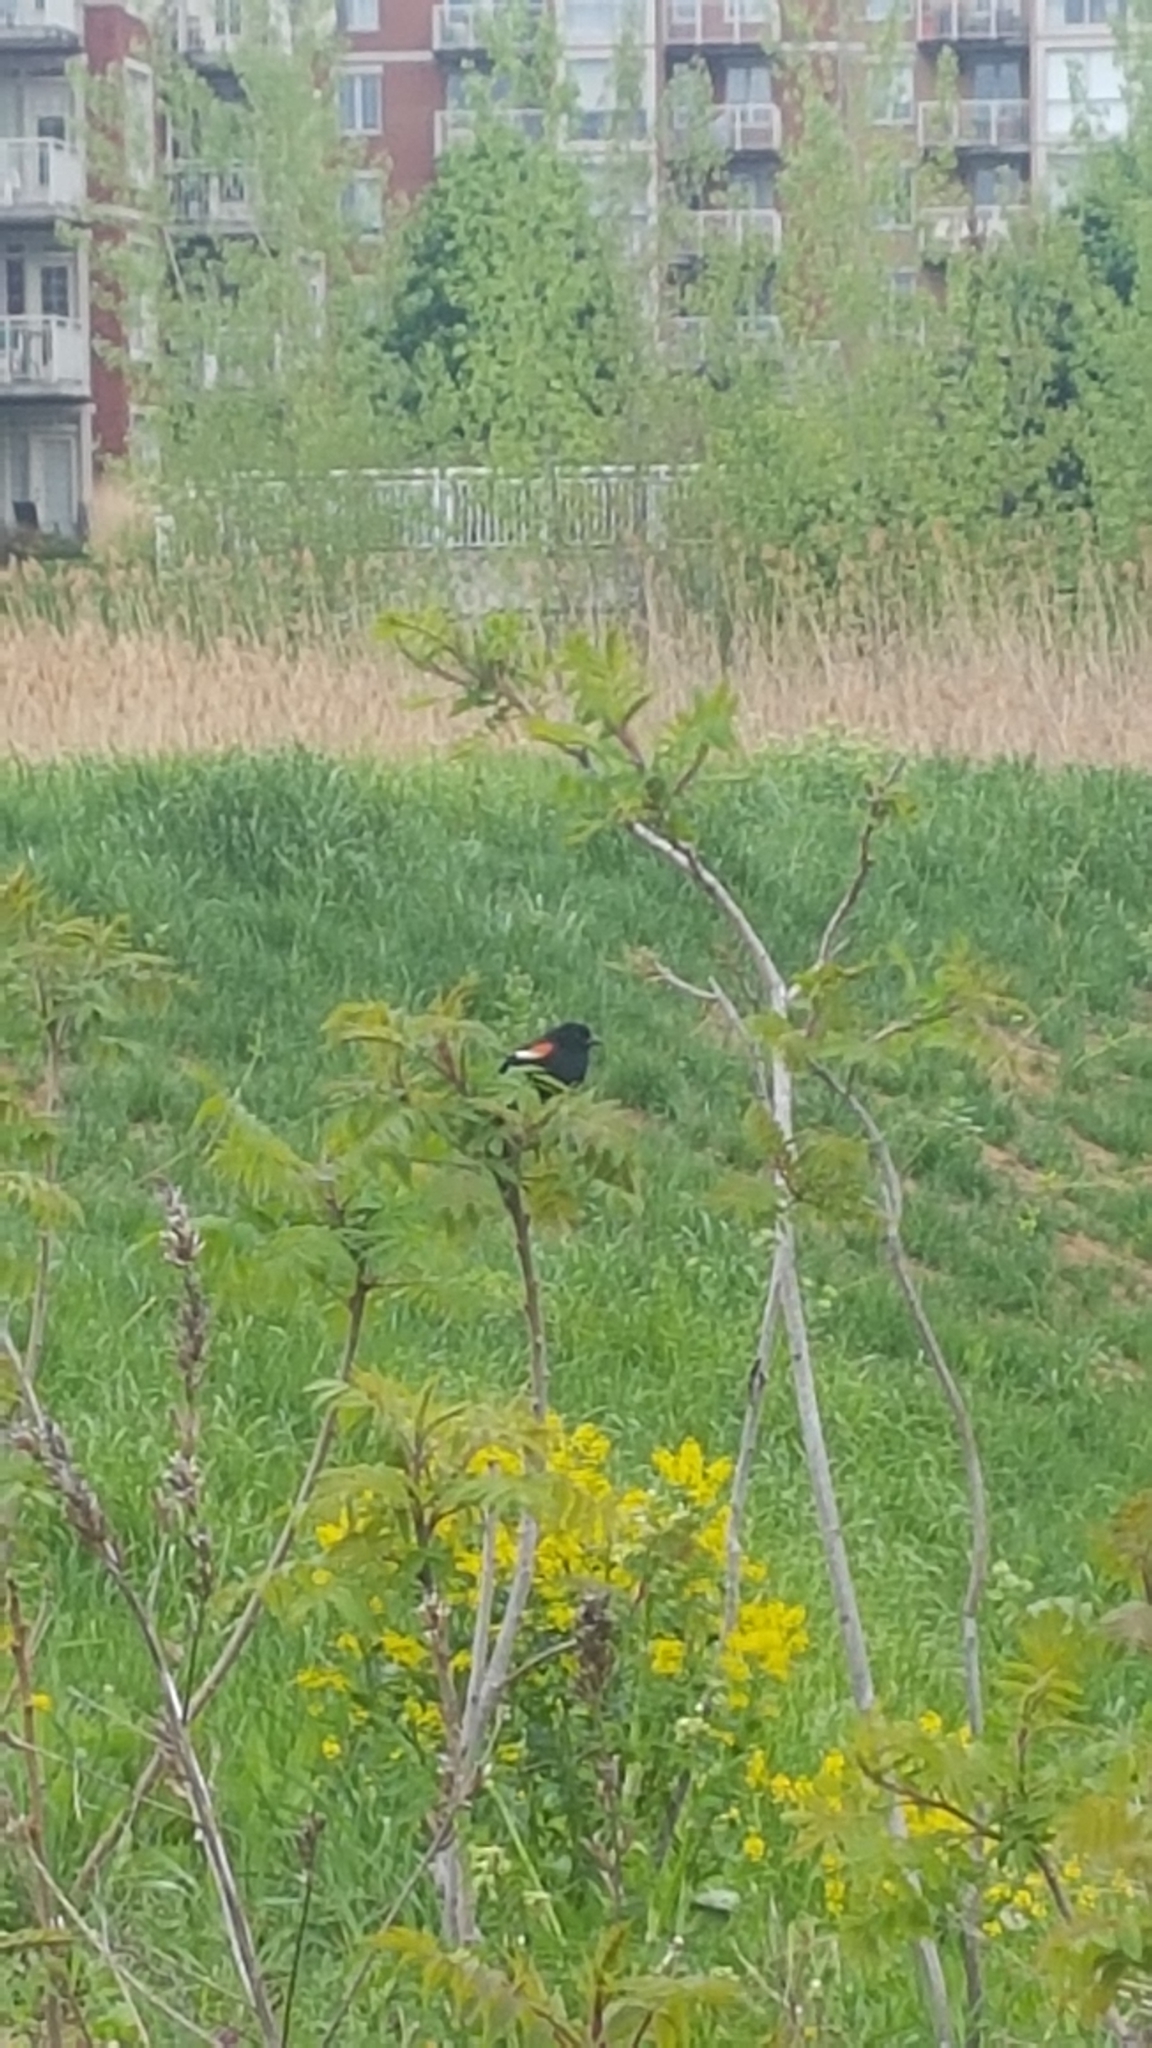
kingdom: Animalia
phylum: Chordata
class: Aves
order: Passeriformes
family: Icteridae
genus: Agelaius
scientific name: Agelaius phoeniceus
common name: Red-winged blackbird
